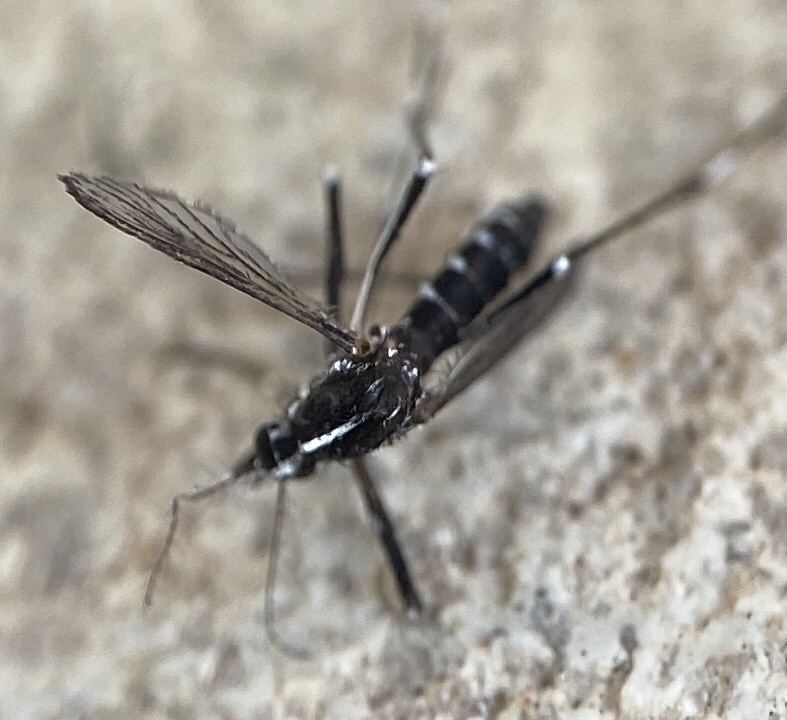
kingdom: Animalia
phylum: Arthropoda
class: Insecta
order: Diptera
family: Culicidae
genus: Aedes
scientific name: Aedes albopictus
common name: Tiger mosquito
